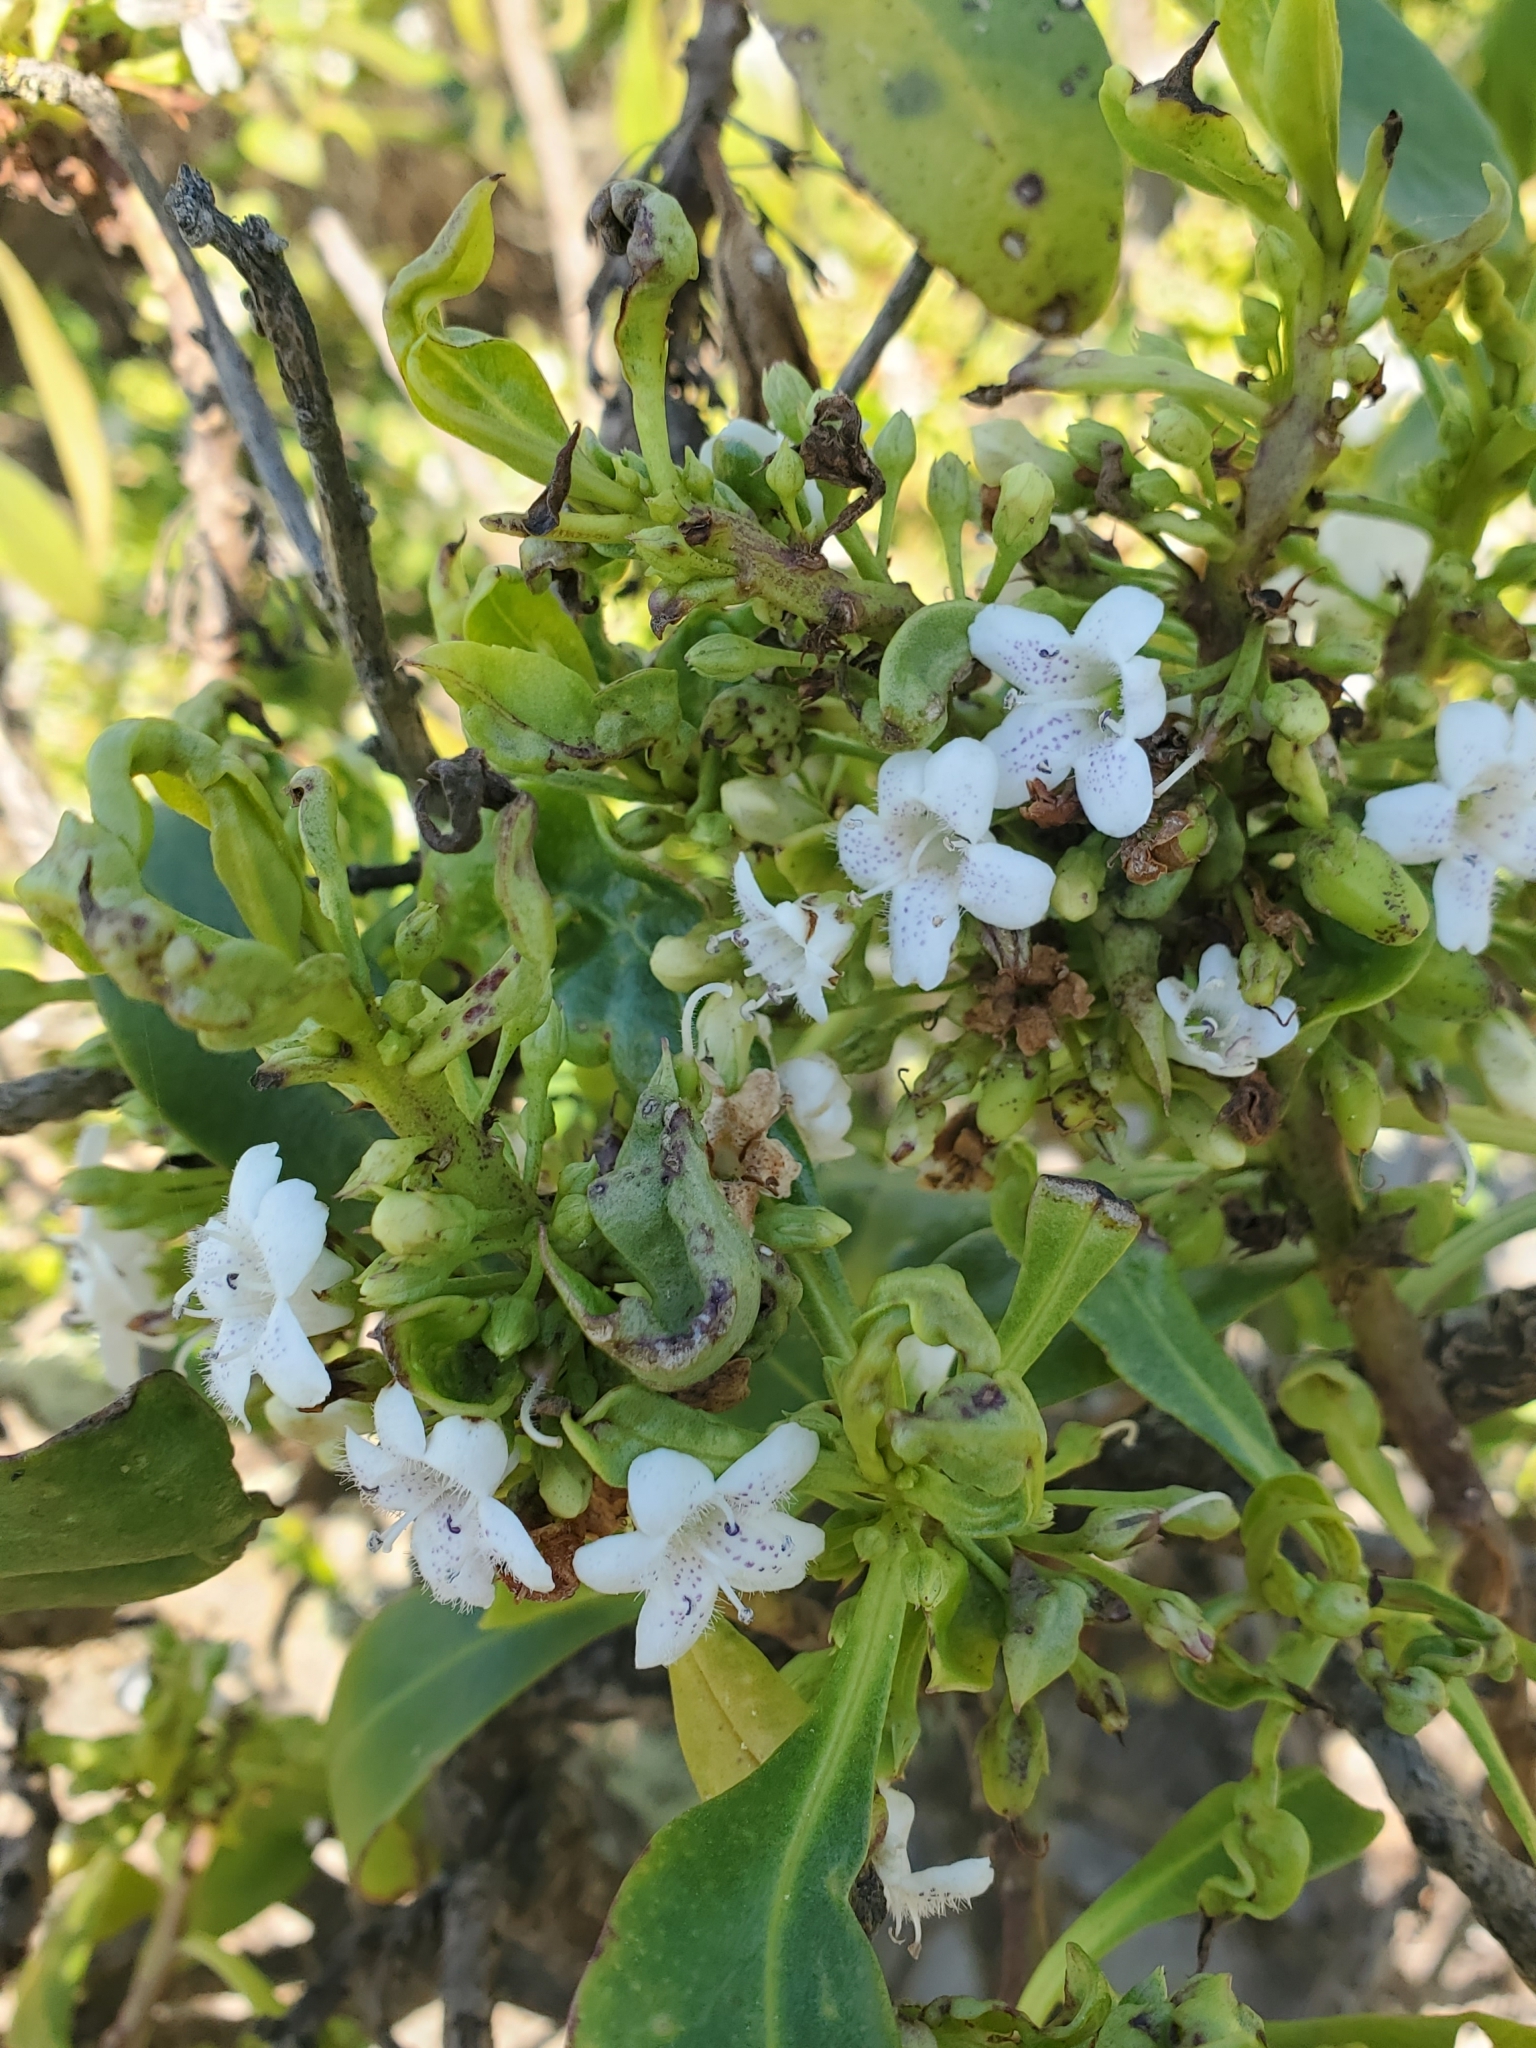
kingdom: Plantae
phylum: Tracheophyta
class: Magnoliopsida
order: Lamiales
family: Scrophulariaceae
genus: Myoporum
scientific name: Myoporum laetum
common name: Ngaio tree
